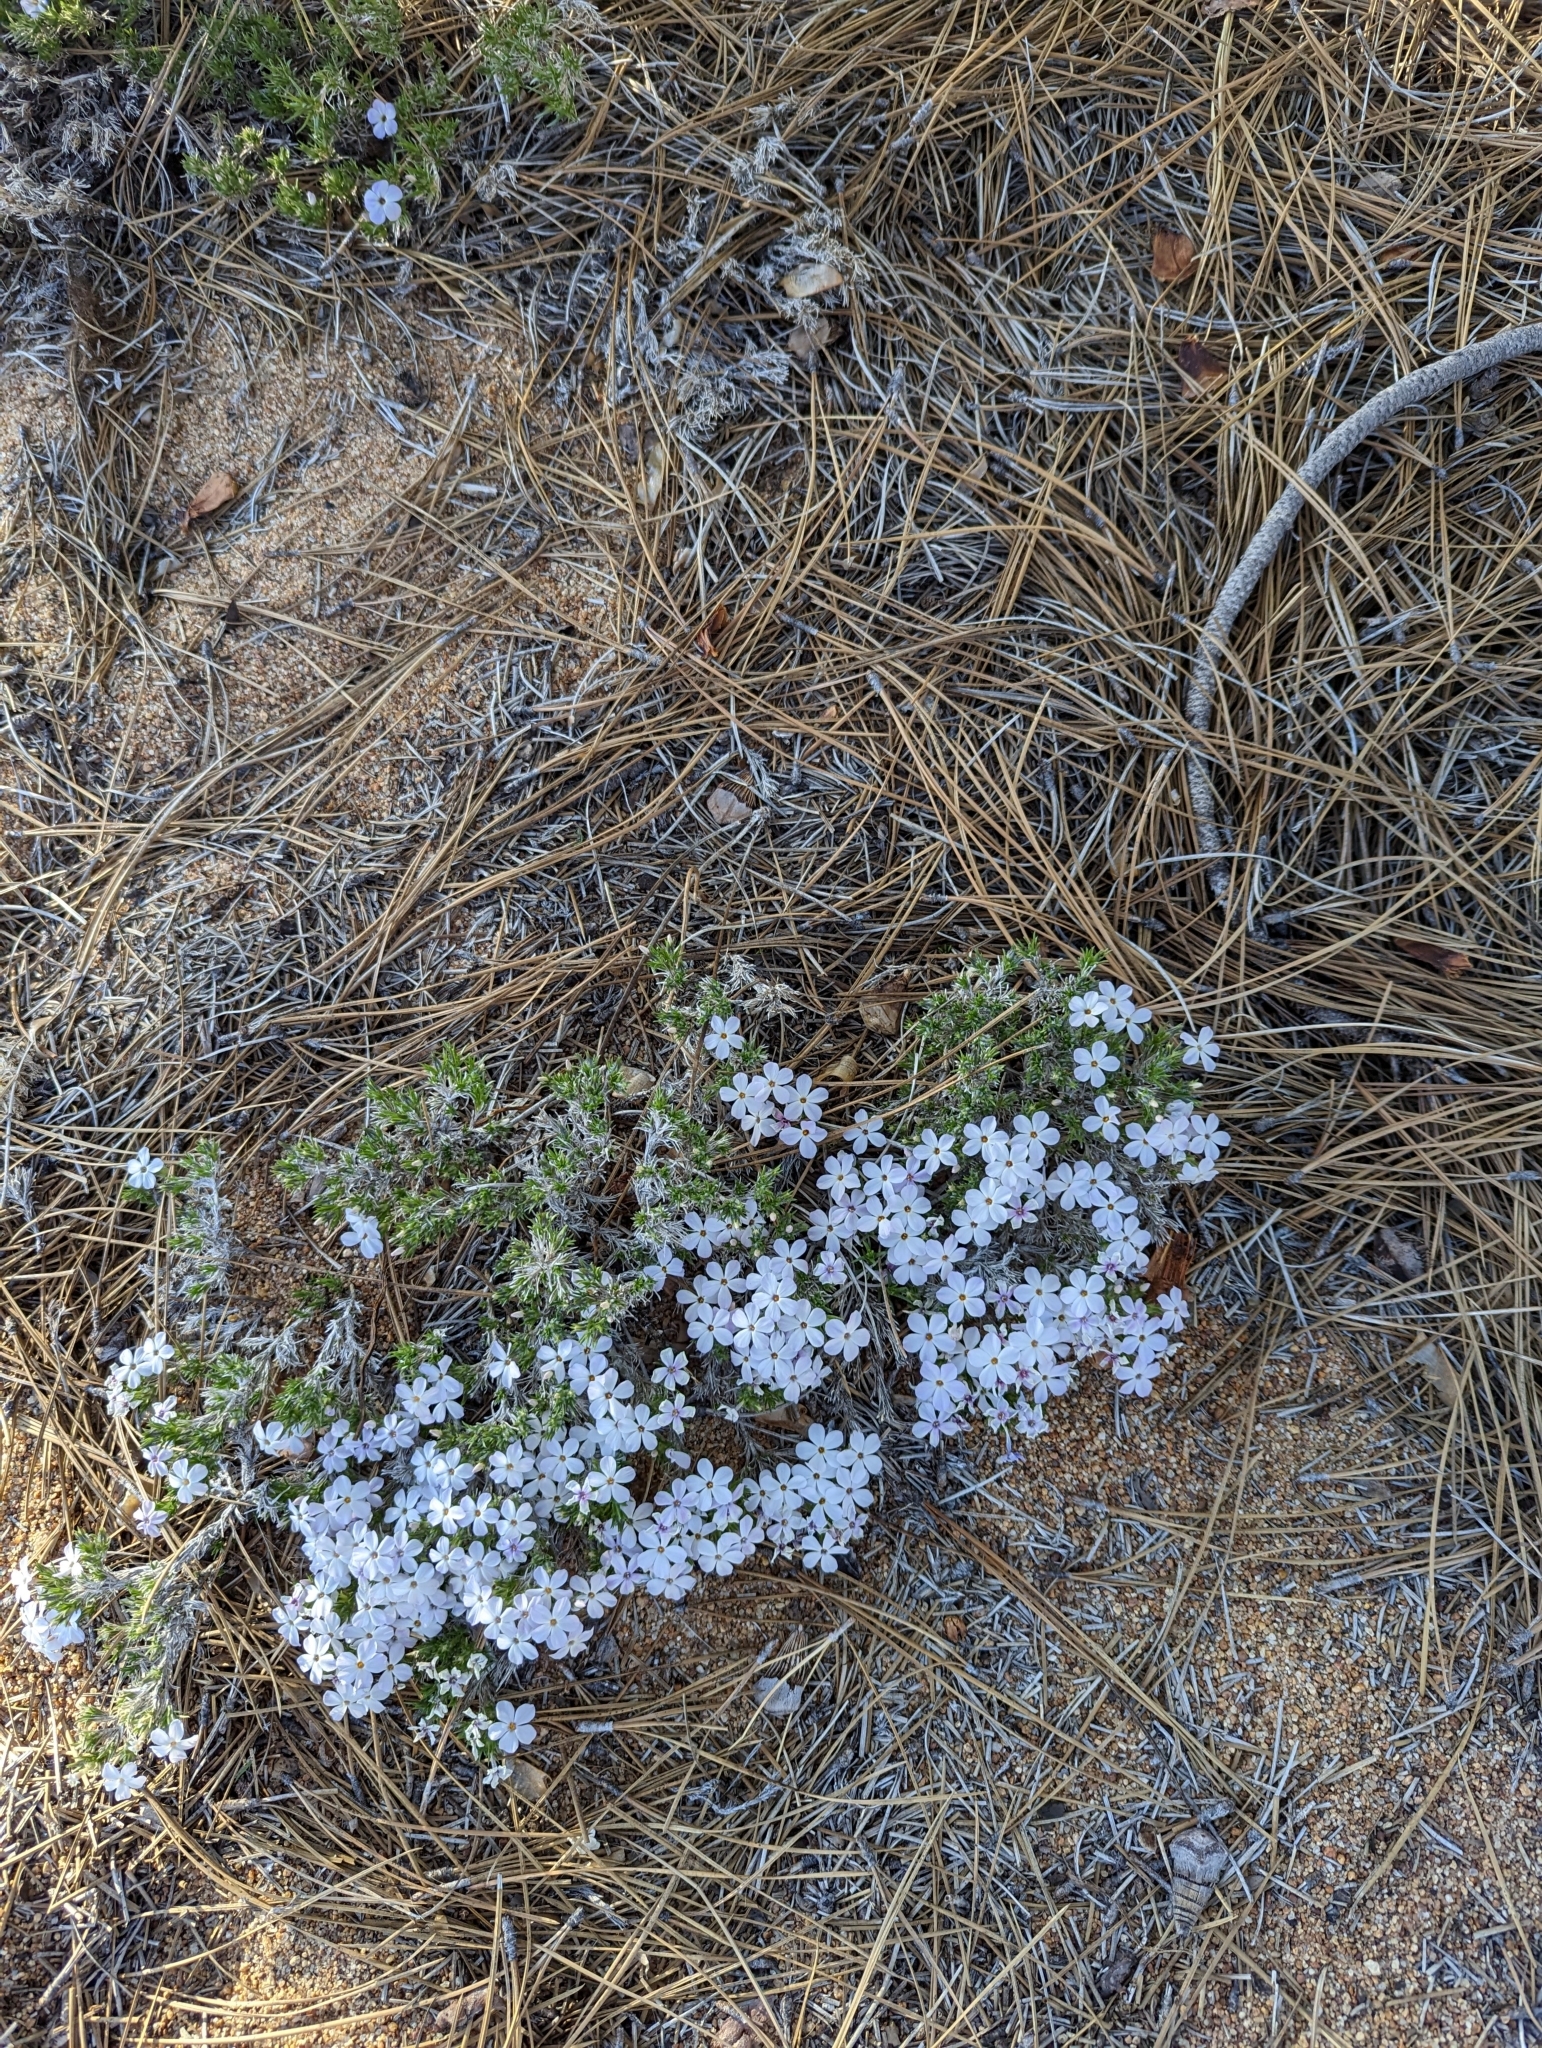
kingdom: Plantae
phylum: Tracheophyta
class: Magnoliopsida
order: Ericales
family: Polemoniaceae
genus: Phlox
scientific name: Phlox diffusa
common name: Mat phlox
